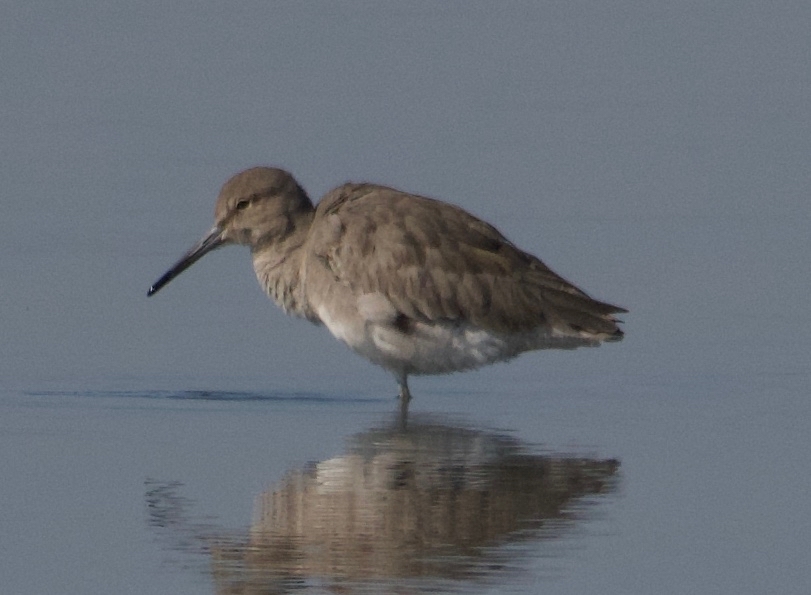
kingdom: Animalia
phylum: Chordata
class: Aves
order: Charadriiformes
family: Scolopacidae
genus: Tringa
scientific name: Tringa semipalmata
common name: Willet
